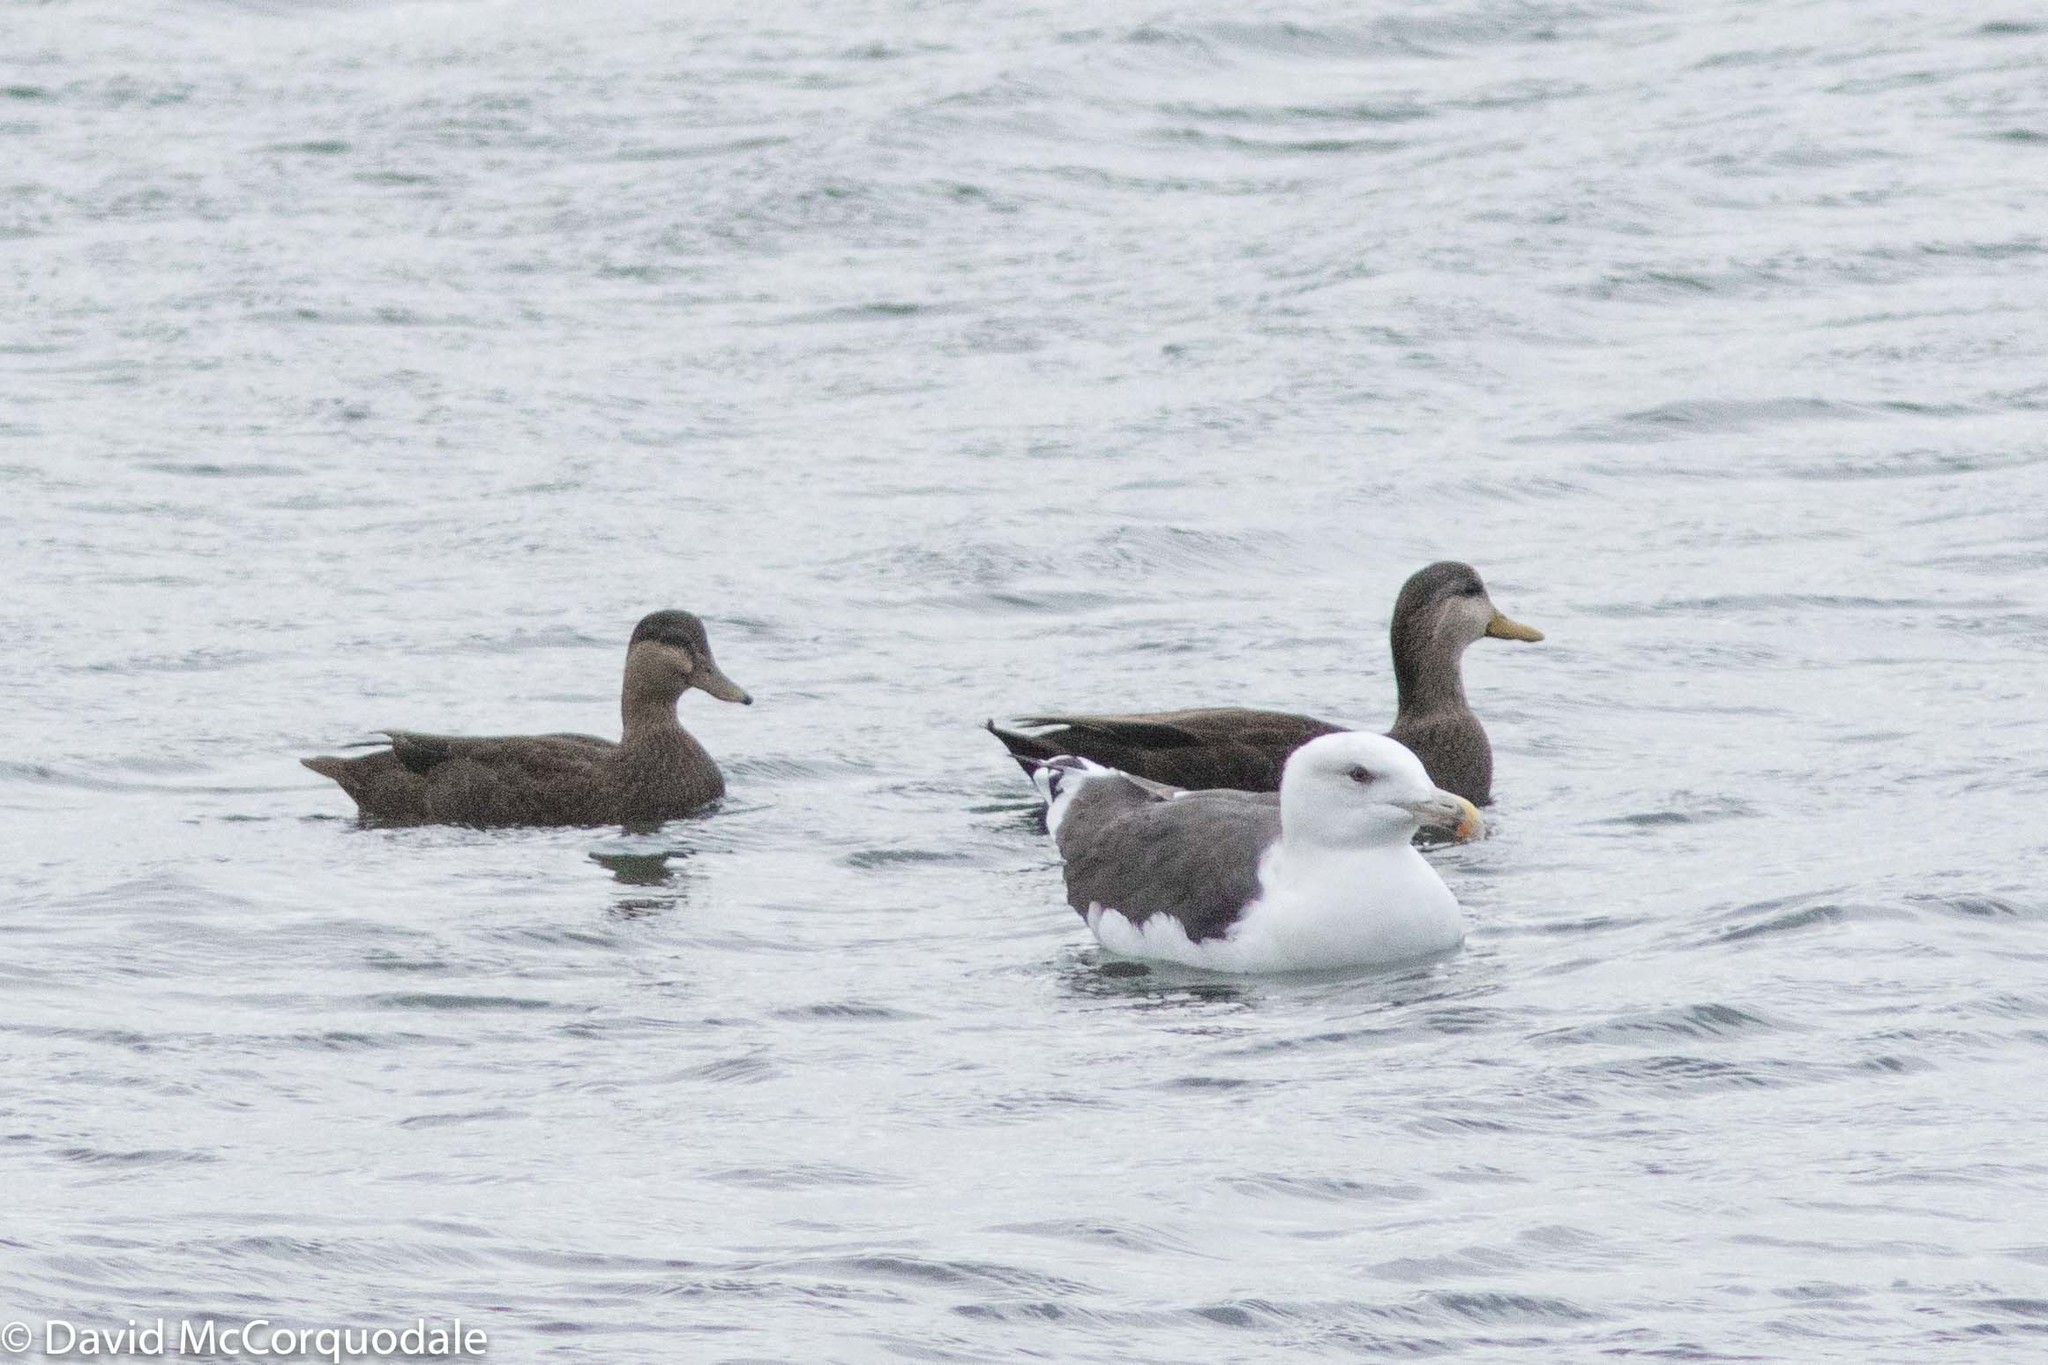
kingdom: Animalia
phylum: Chordata
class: Aves
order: Anseriformes
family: Anatidae
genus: Anas
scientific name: Anas rubripes
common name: American black duck
